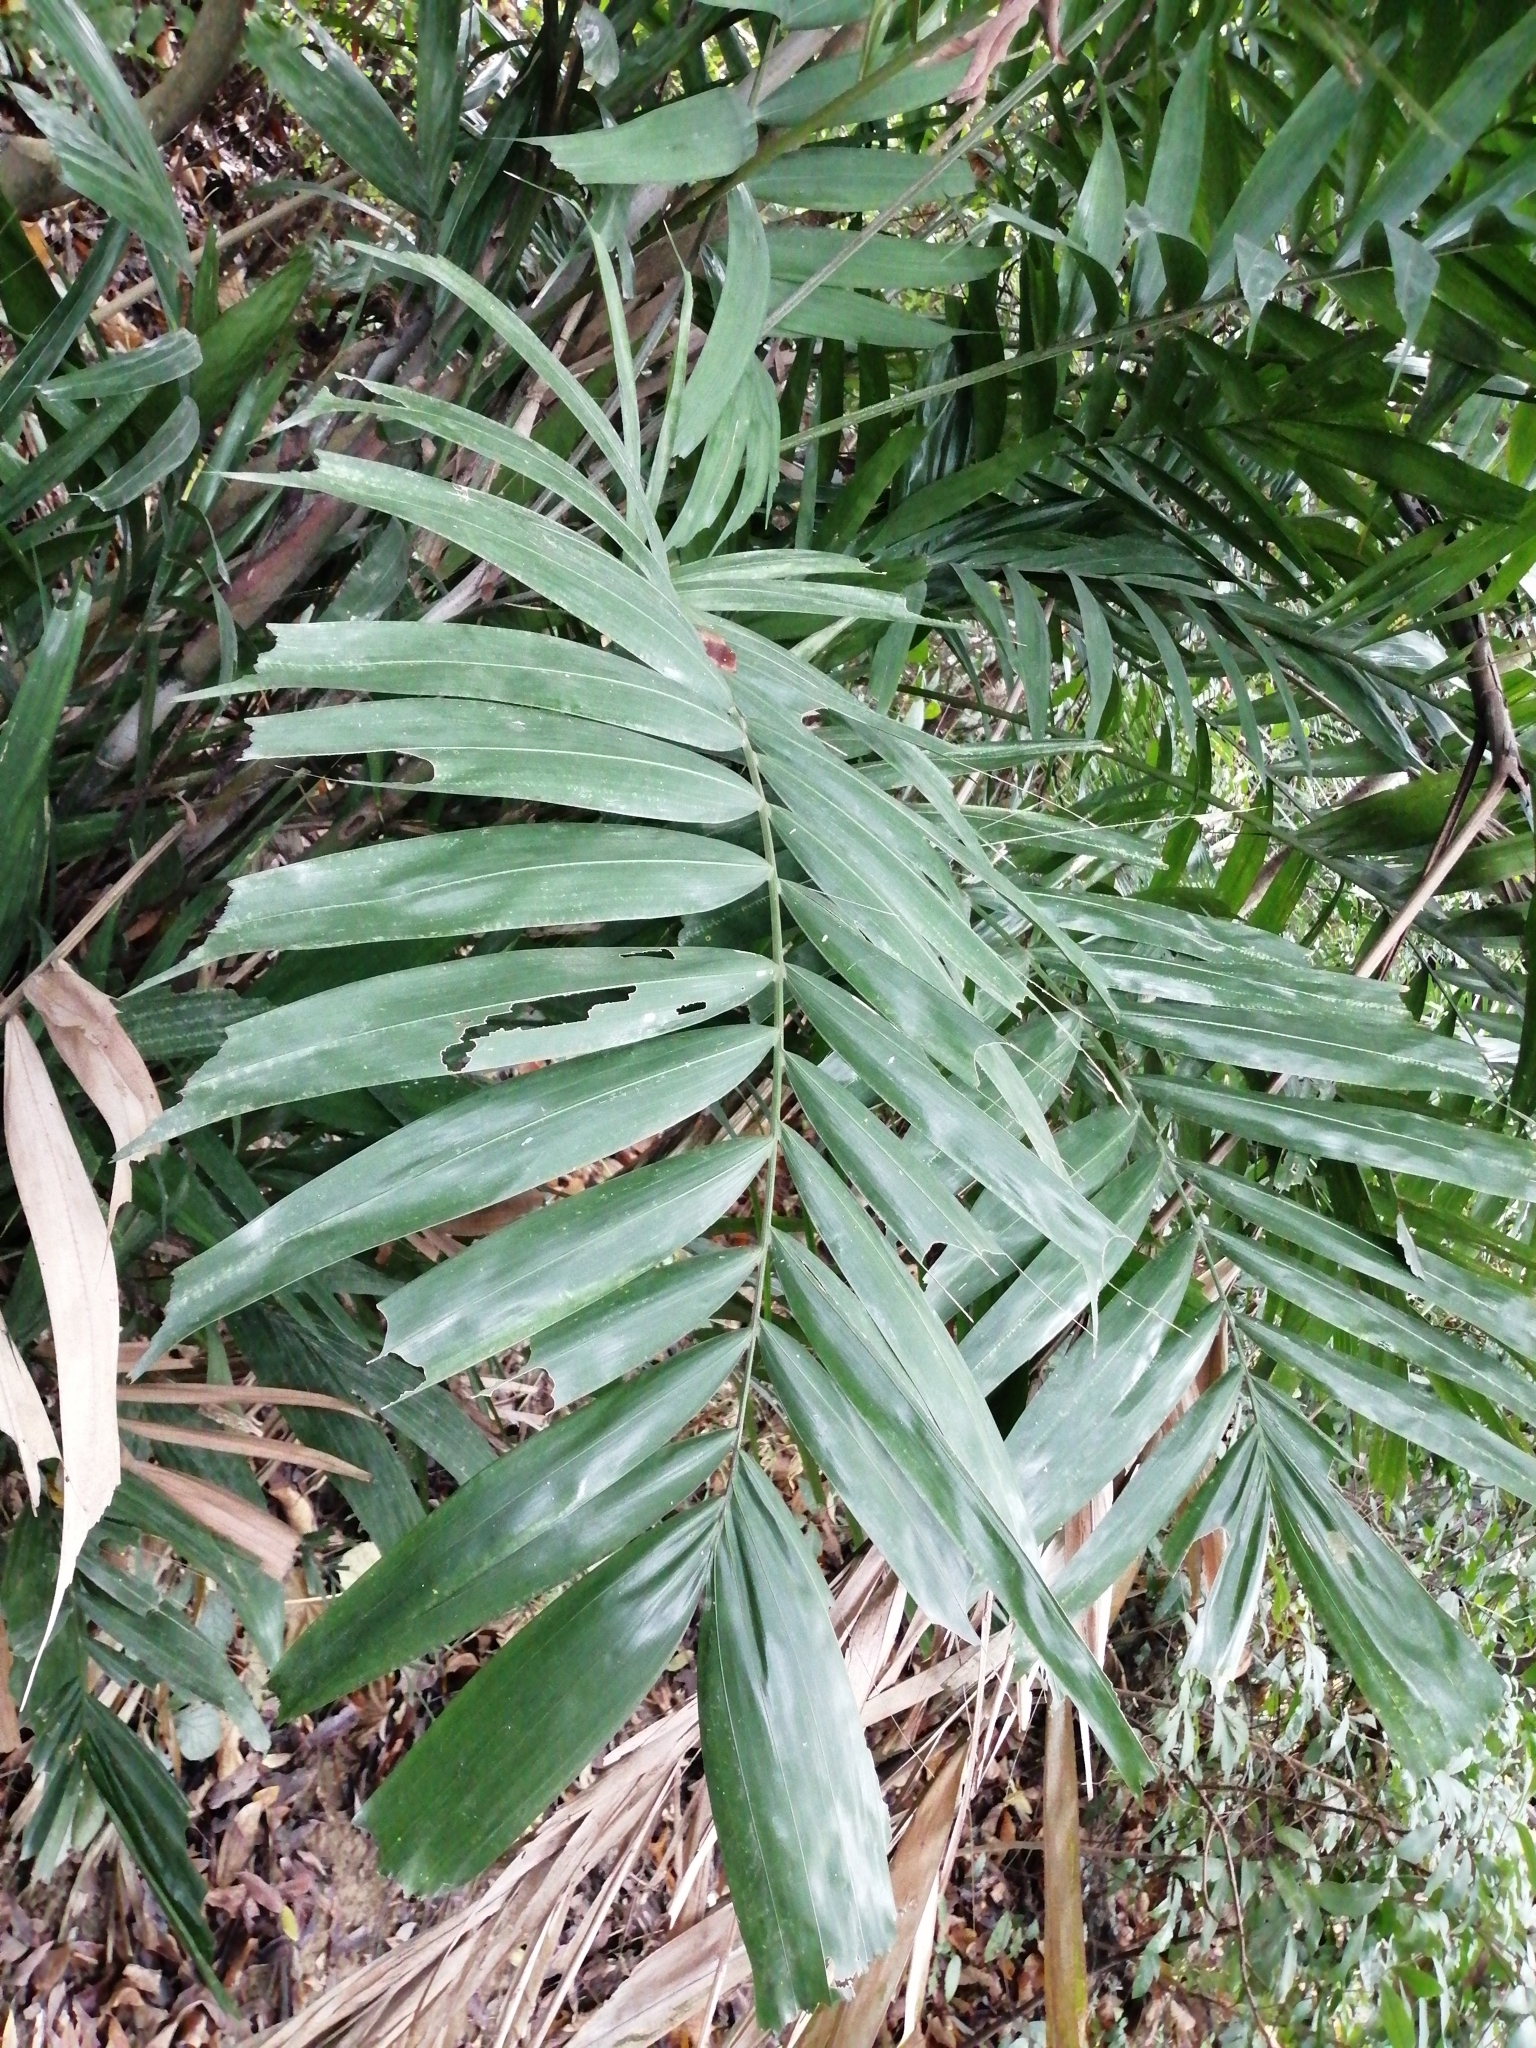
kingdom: Plantae
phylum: Tracheophyta
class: Liliopsida
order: Arecales
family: Arecaceae
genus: Arenga
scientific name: Arenga engleri
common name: Formosan sugar palm
